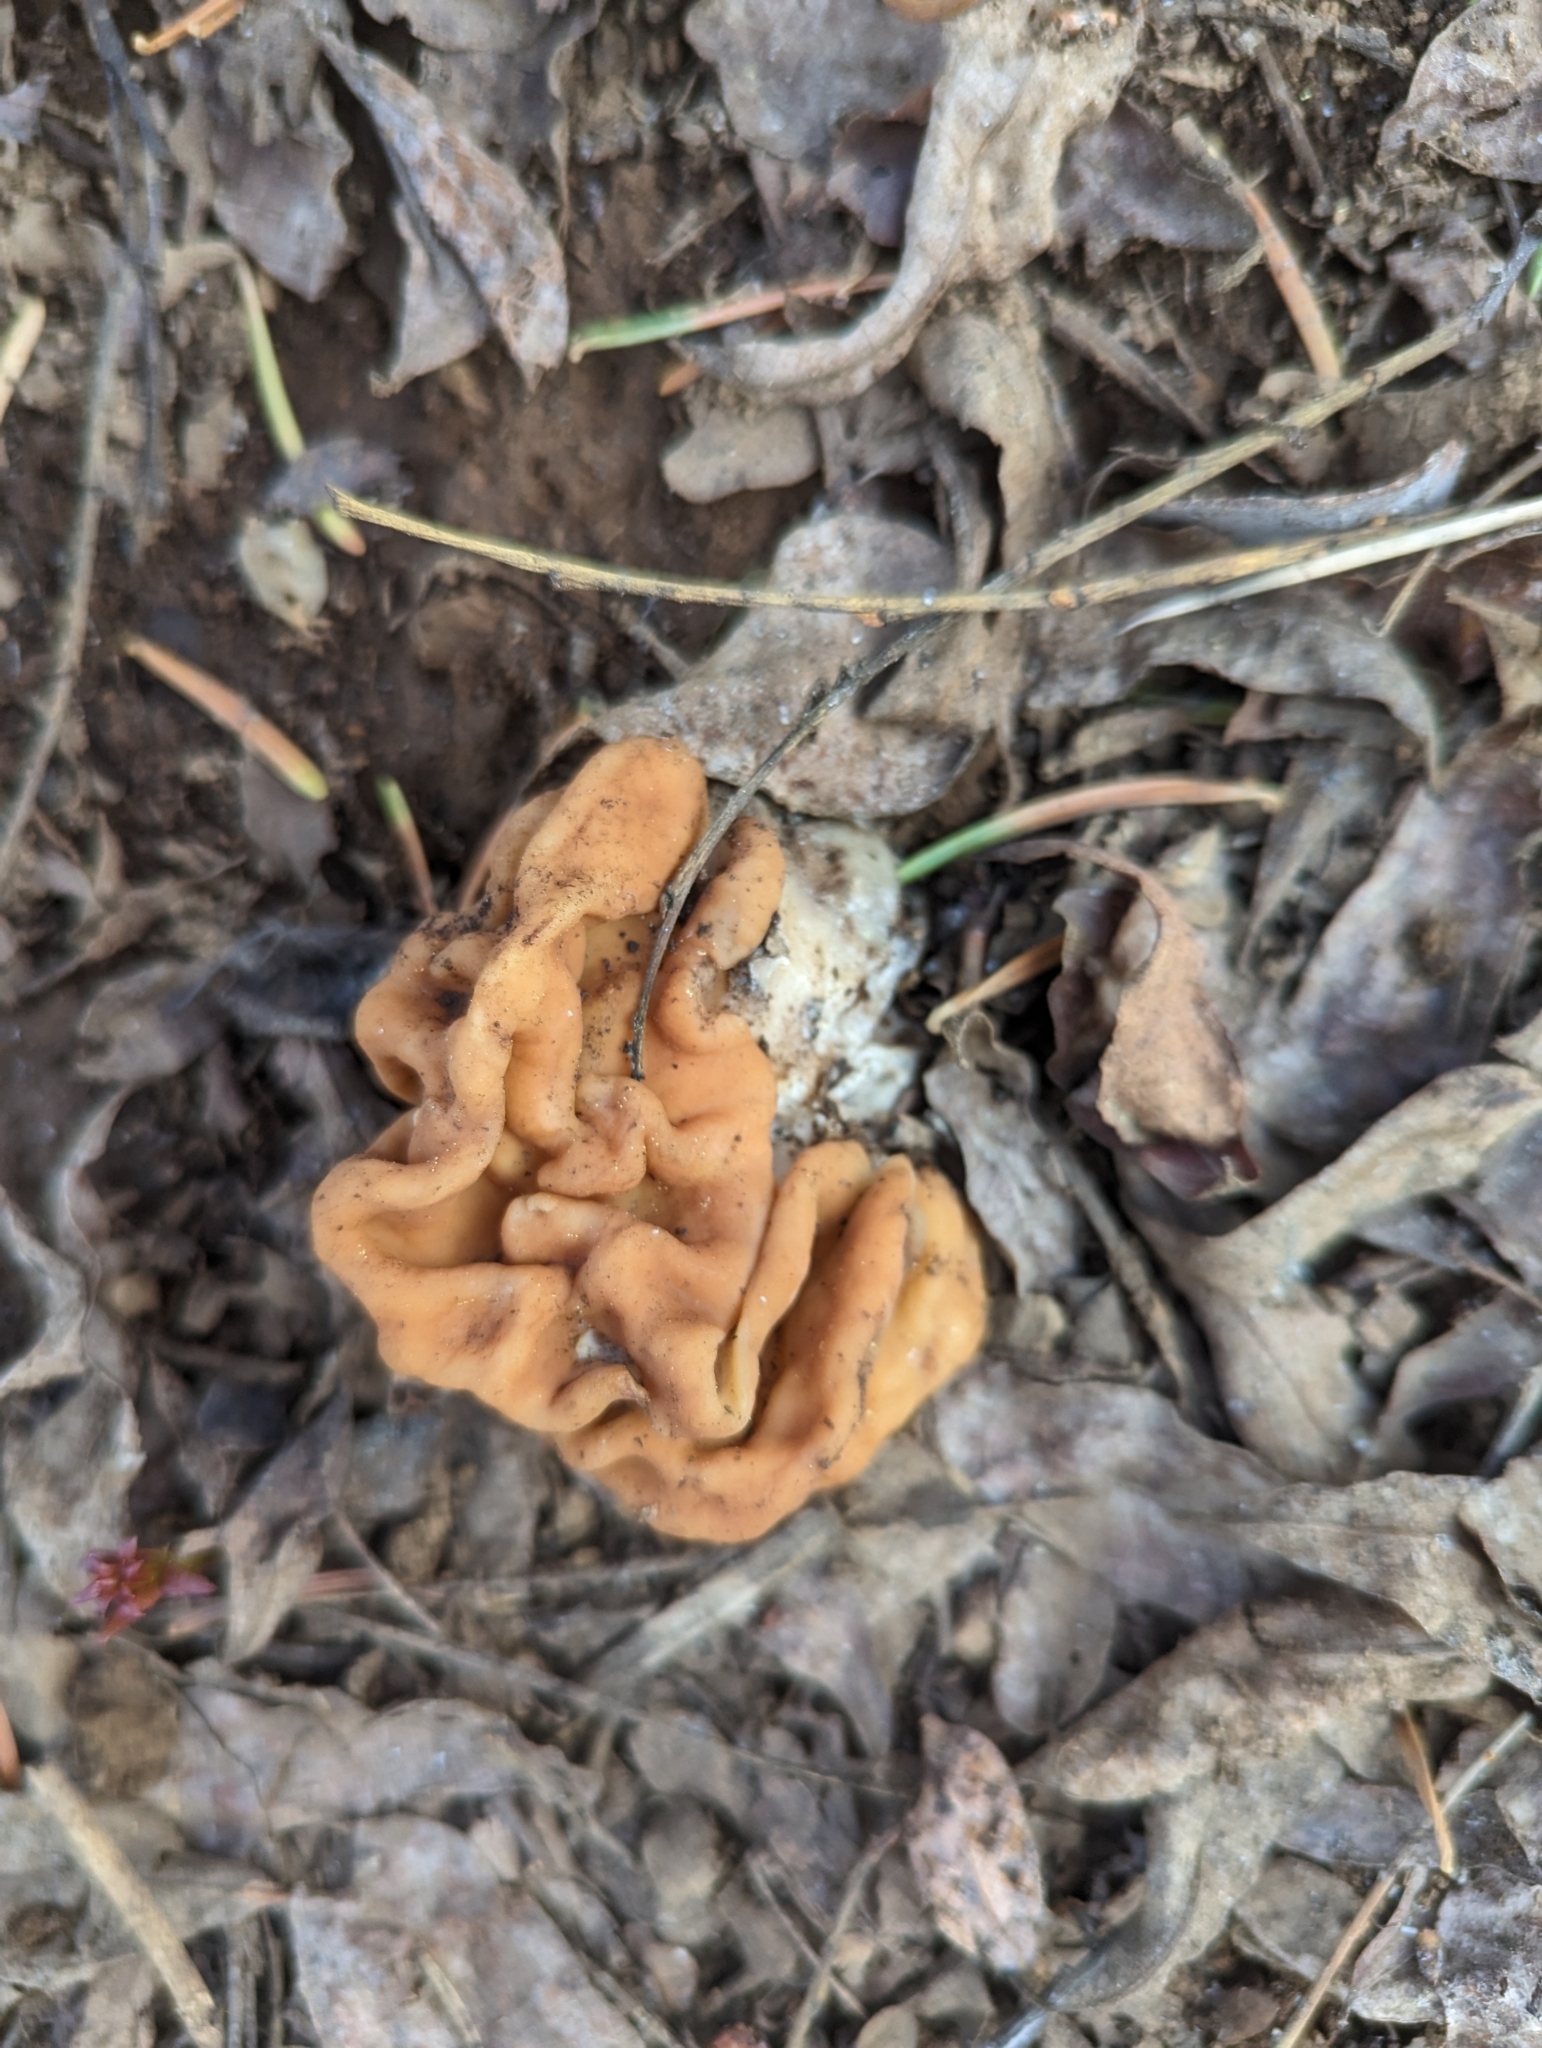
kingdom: Fungi
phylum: Ascomycota
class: Pezizomycetes
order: Pezizales
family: Discinaceae
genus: Discina
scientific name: Discina montana
